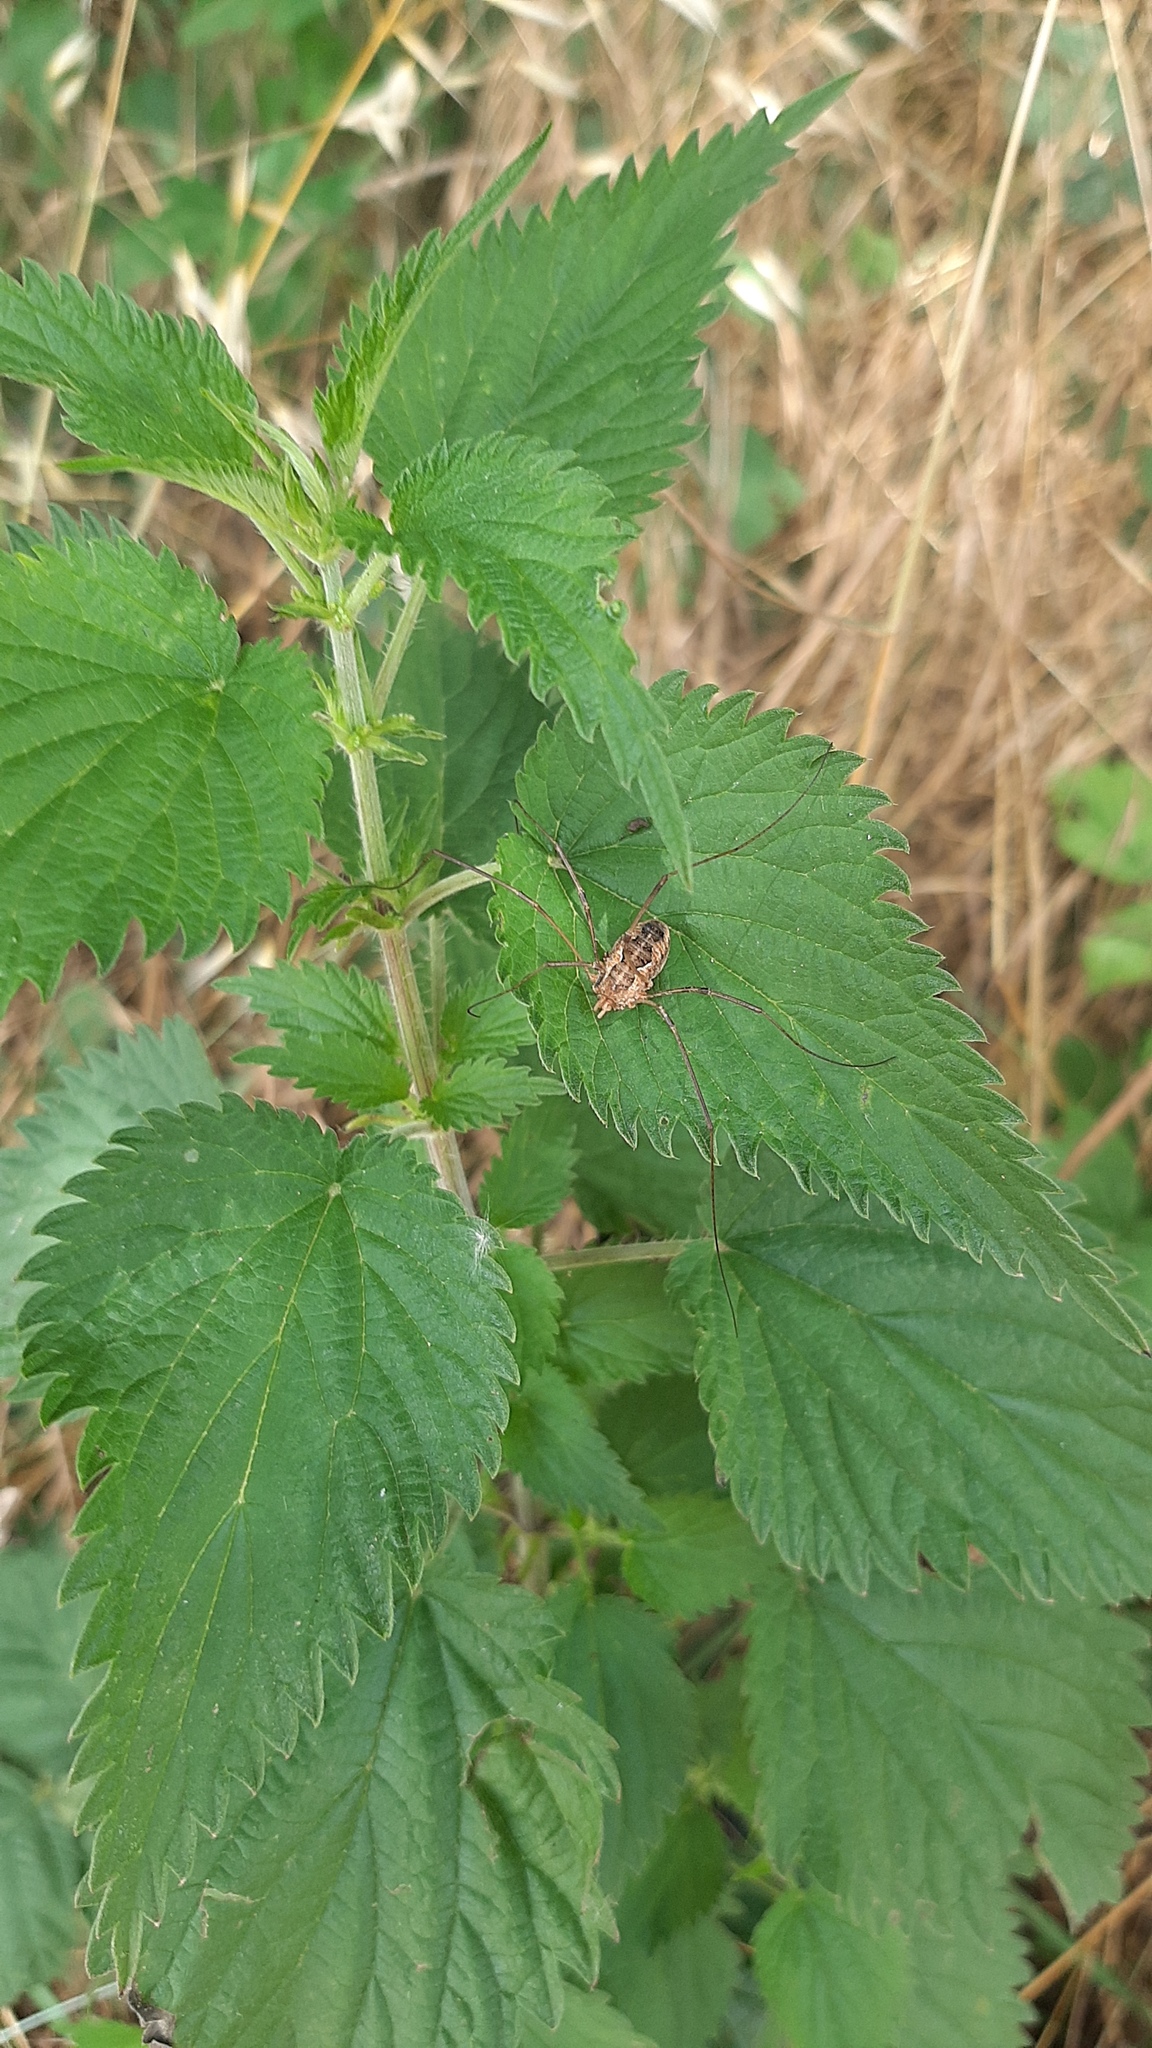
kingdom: Animalia
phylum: Arthropoda
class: Arachnida
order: Opiliones
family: Phalangiidae
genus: Phalangium
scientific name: Phalangium opilio
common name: Daddy longleg
